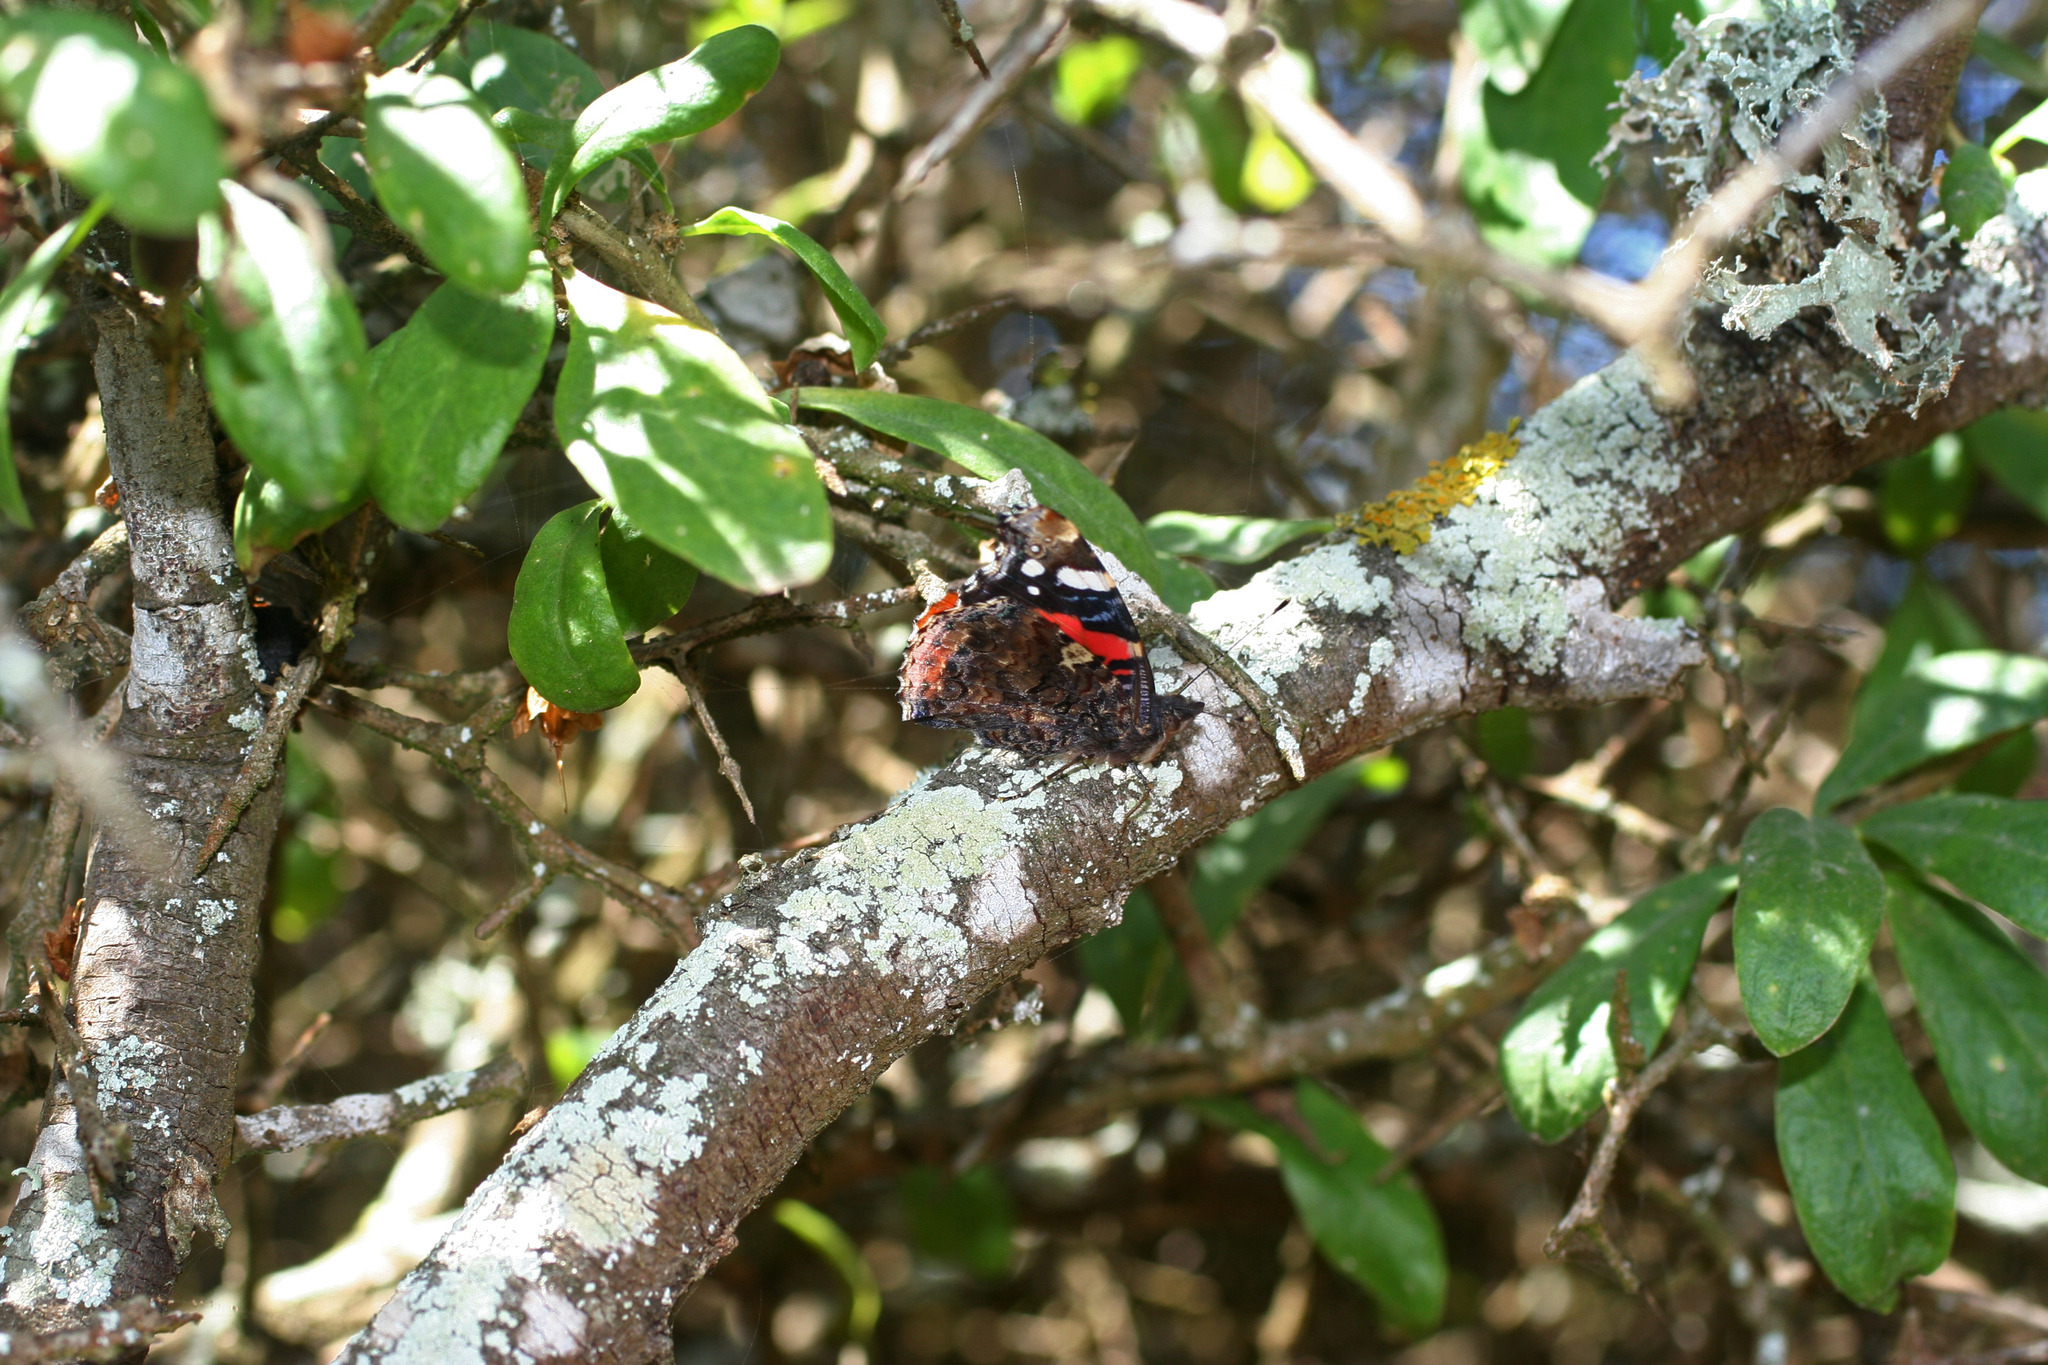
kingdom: Animalia
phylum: Arthropoda
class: Insecta
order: Lepidoptera
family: Nymphalidae
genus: Vanessa
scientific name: Vanessa atalanta
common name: Red admiral
